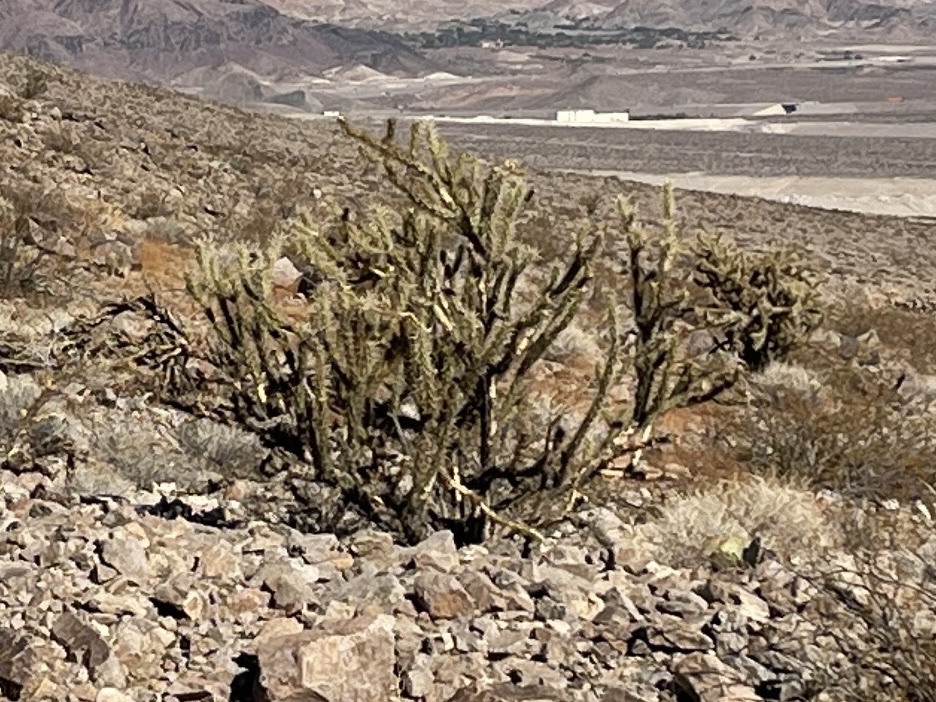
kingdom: Plantae
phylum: Tracheophyta
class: Magnoliopsida
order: Caryophyllales
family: Cactaceae
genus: Cylindropuntia
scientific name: Cylindropuntia acanthocarpa
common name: Buckhorn cholla
